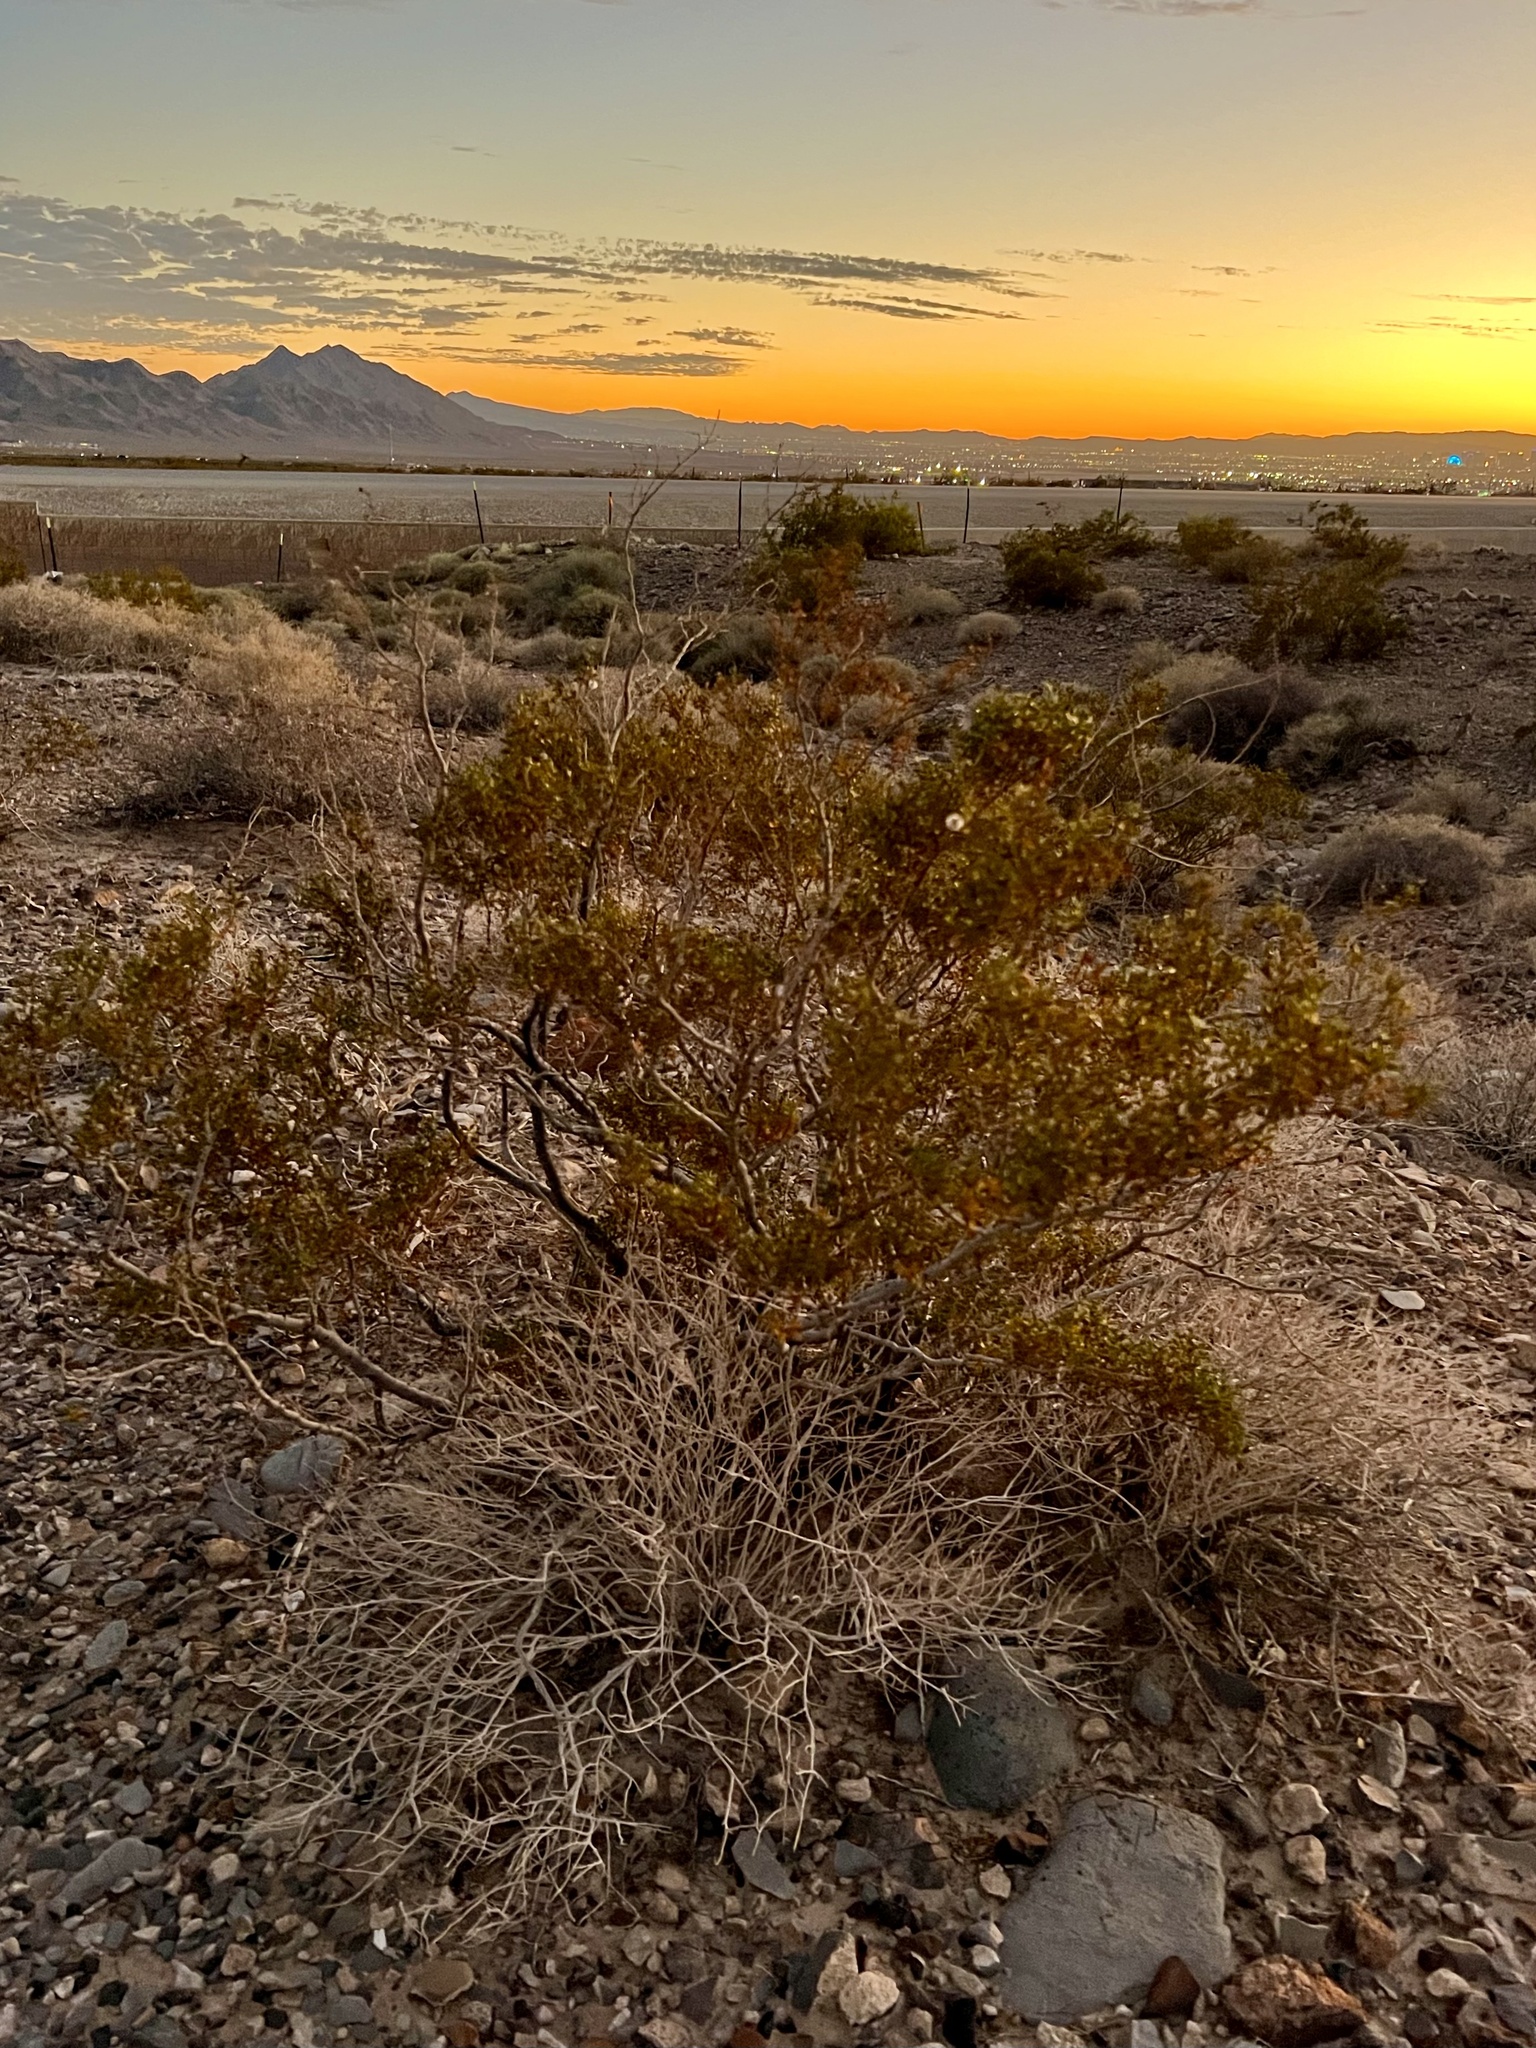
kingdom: Plantae
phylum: Tracheophyta
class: Magnoliopsida
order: Zygophyllales
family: Zygophyllaceae
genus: Larrea
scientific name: Larrea tridentata
